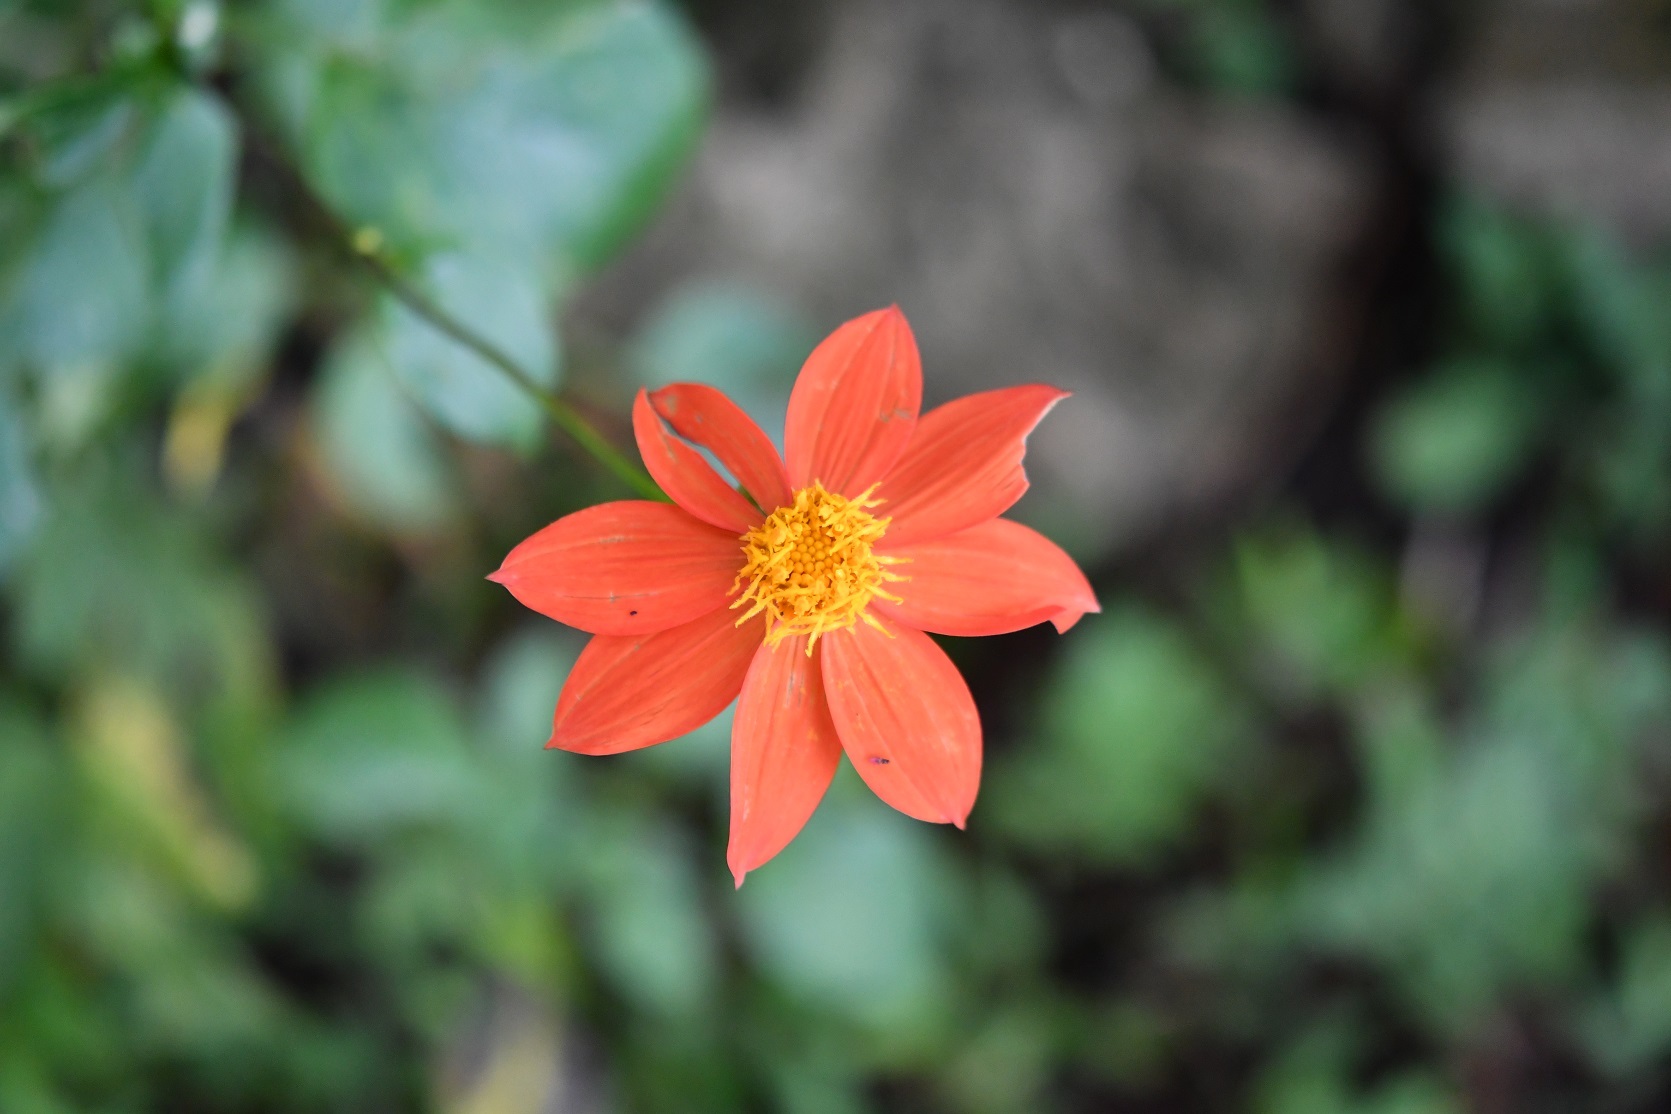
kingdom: Plantae
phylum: Tracheophyta
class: Magnoliopsida
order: Asterales
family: Asteraceae
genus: Dahlia
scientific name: Dahlia coccinea
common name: Red dahlia
